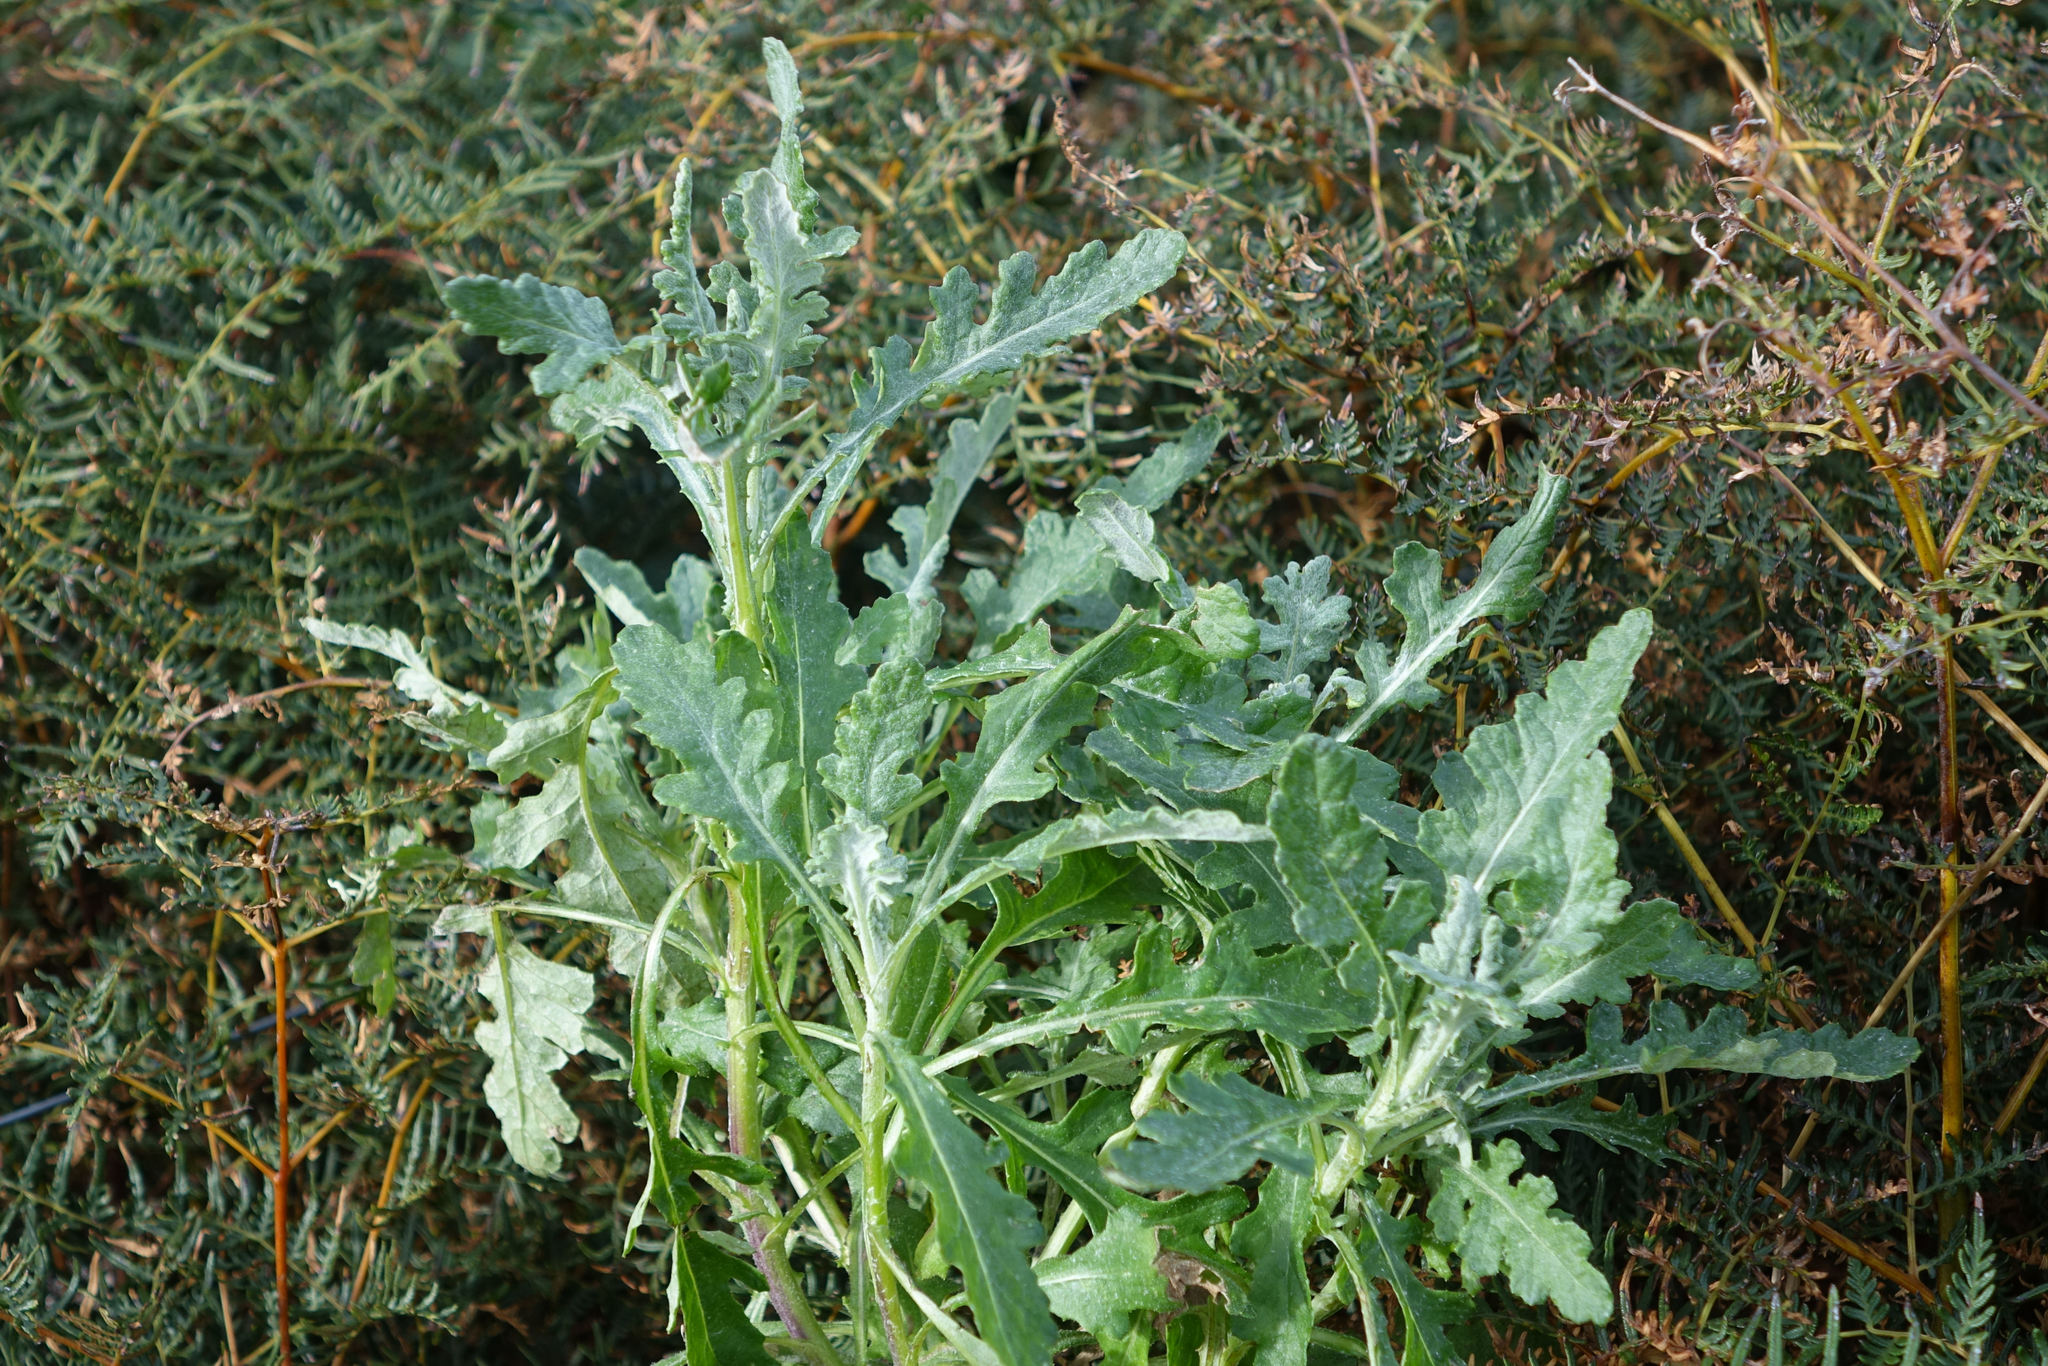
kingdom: Plantae
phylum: Tracheophyta
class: Magnoliopsida
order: Asterales
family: Asteraceae
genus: Senecio
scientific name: Senecio glomeratus
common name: Cutleaf burnweed
